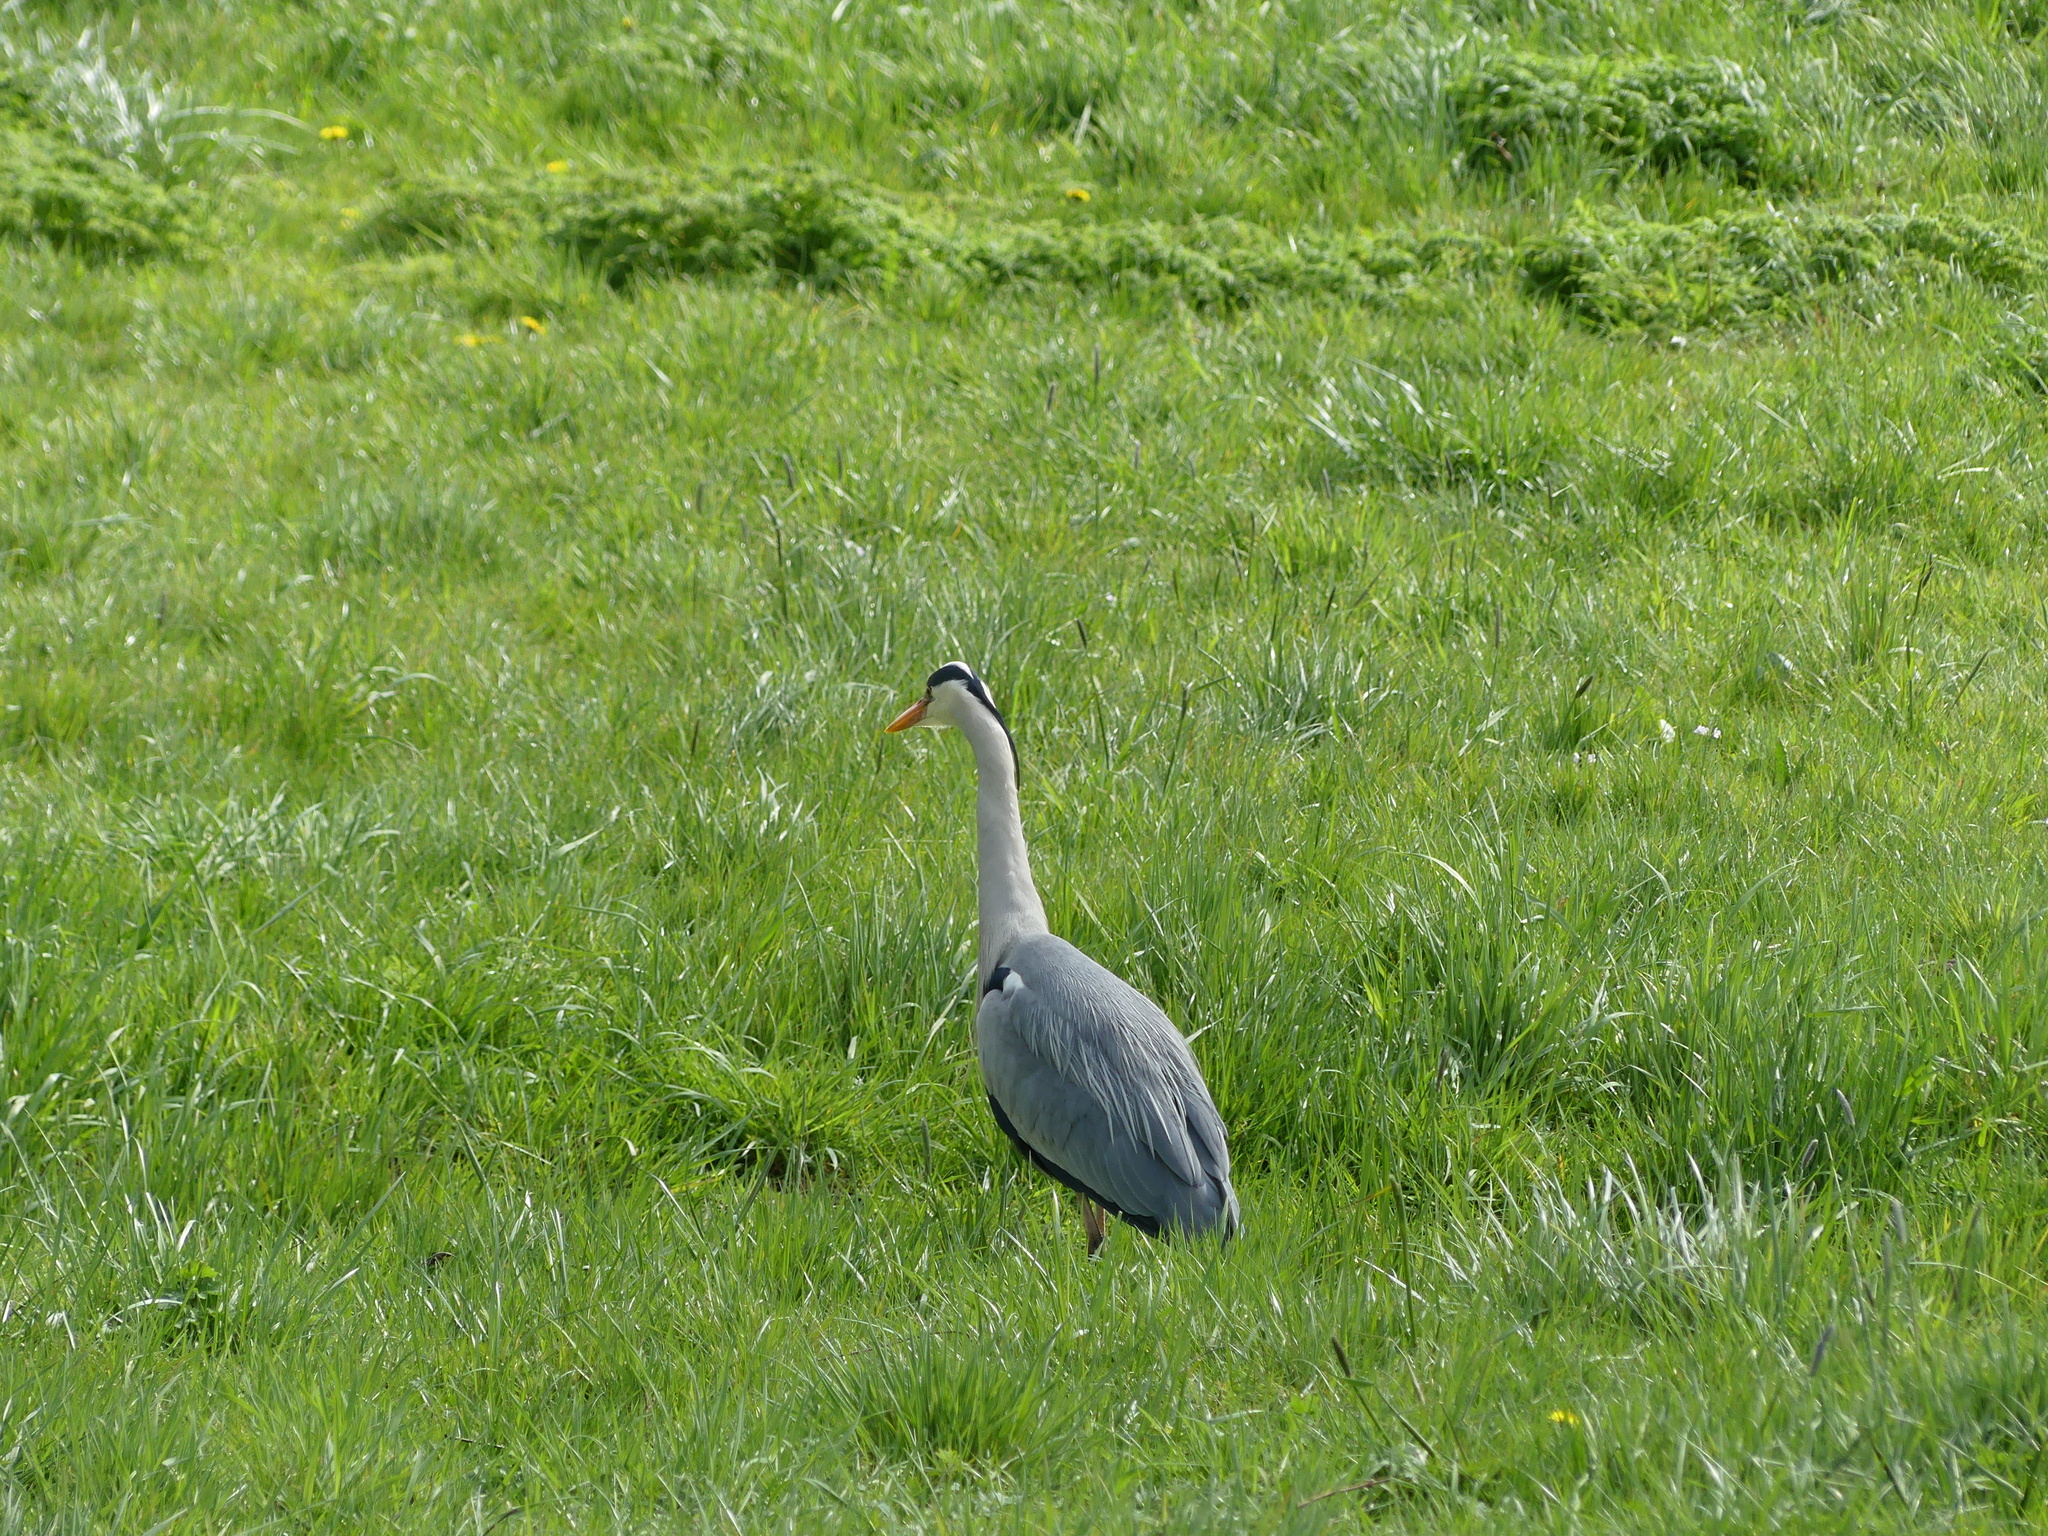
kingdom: Animalia
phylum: Chordata
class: Aves
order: Pelecaniformes
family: Ardeidae
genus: Ardea
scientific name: Ardea cinerea
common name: Grey heron
